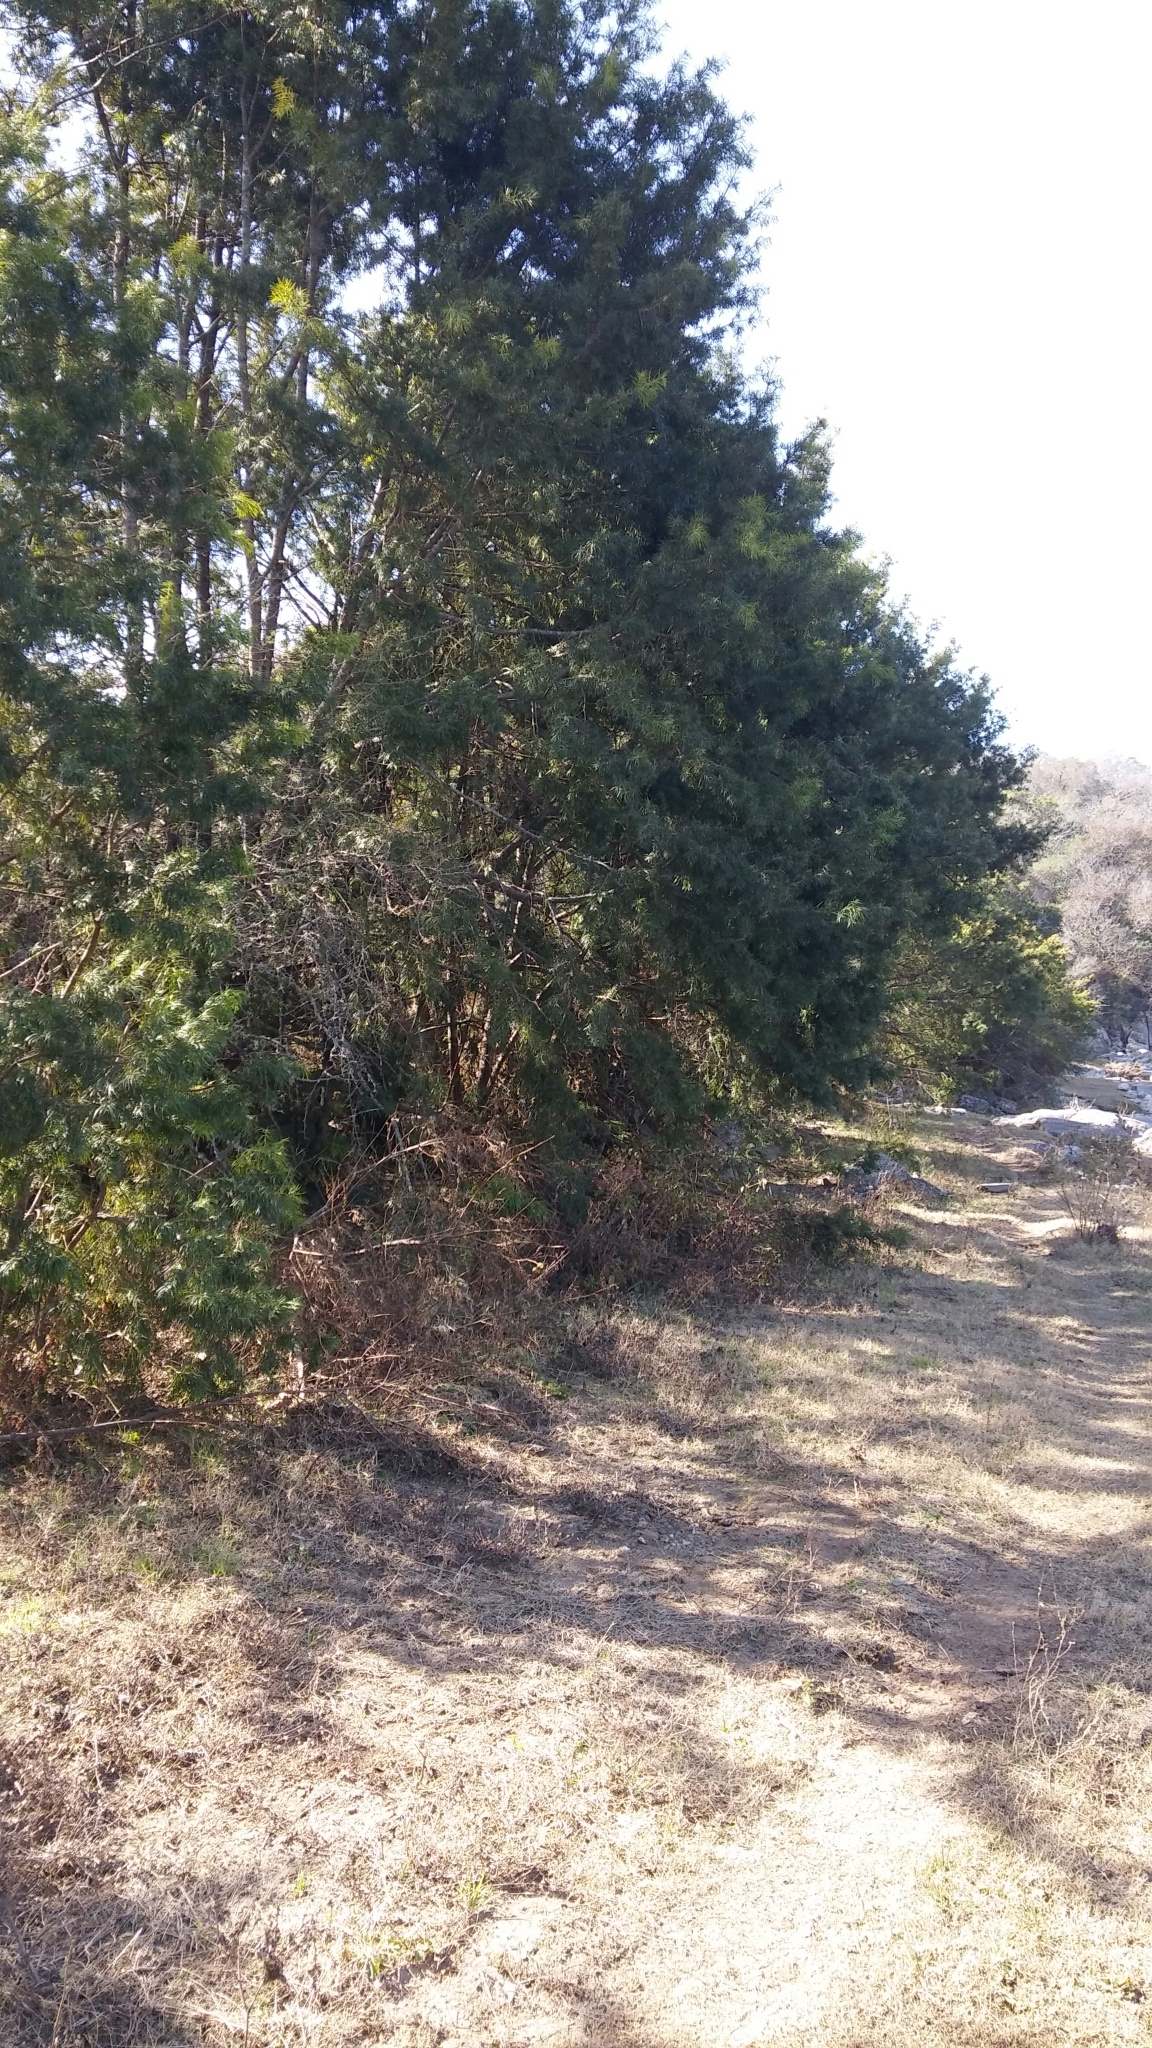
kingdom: Plantae
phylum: Tracheophyta
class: Pinopsida
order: Pinales
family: Podocarpaceae
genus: Podocarpus
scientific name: Podocarpus parlatorei
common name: Pino blanco
